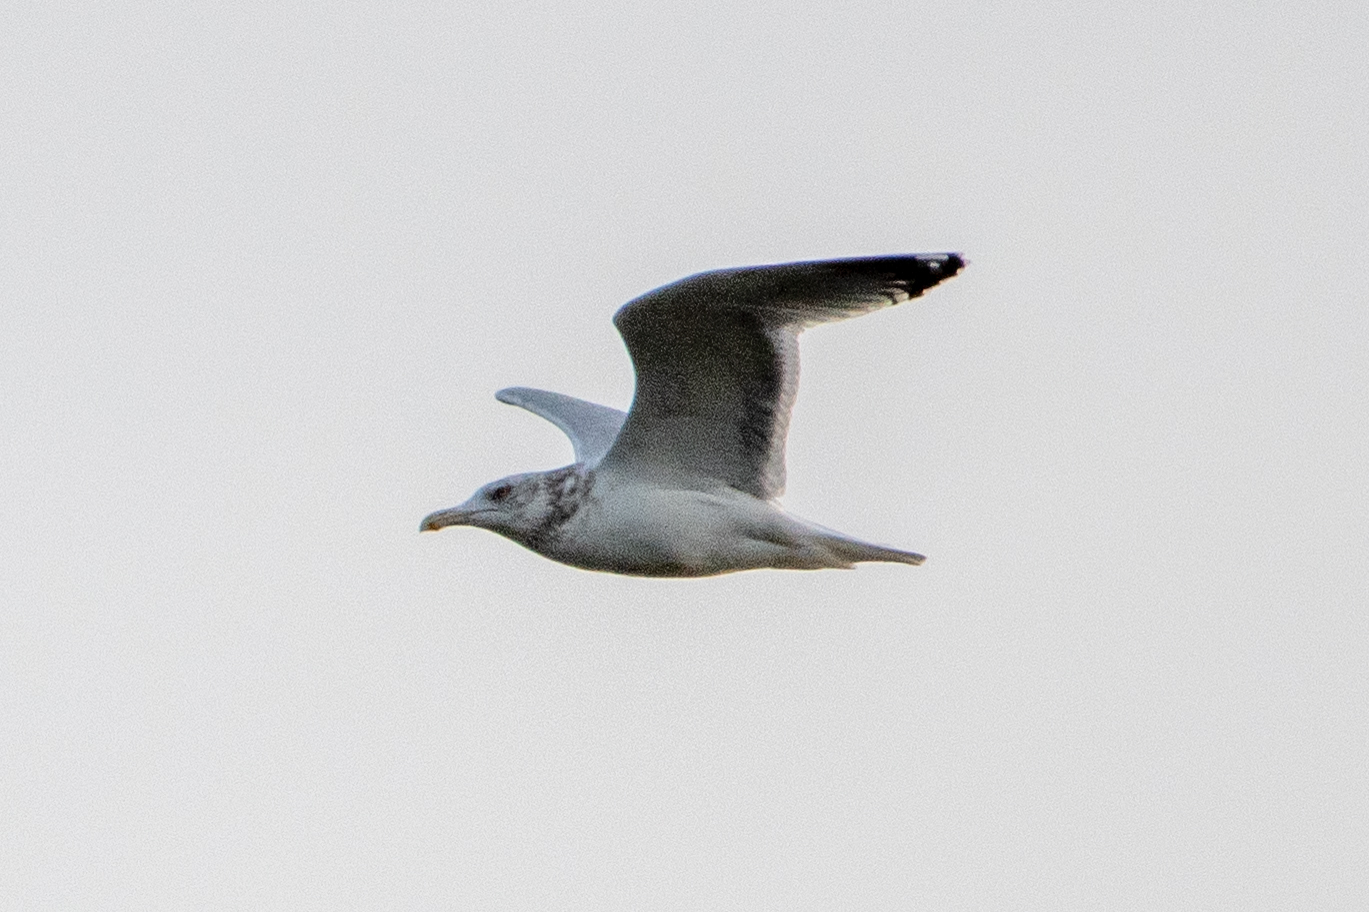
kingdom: Animalia
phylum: Chordata
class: Aves
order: Charadriiformes
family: Laridae
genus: Larus
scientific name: Larus argentatus
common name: Herring gull
